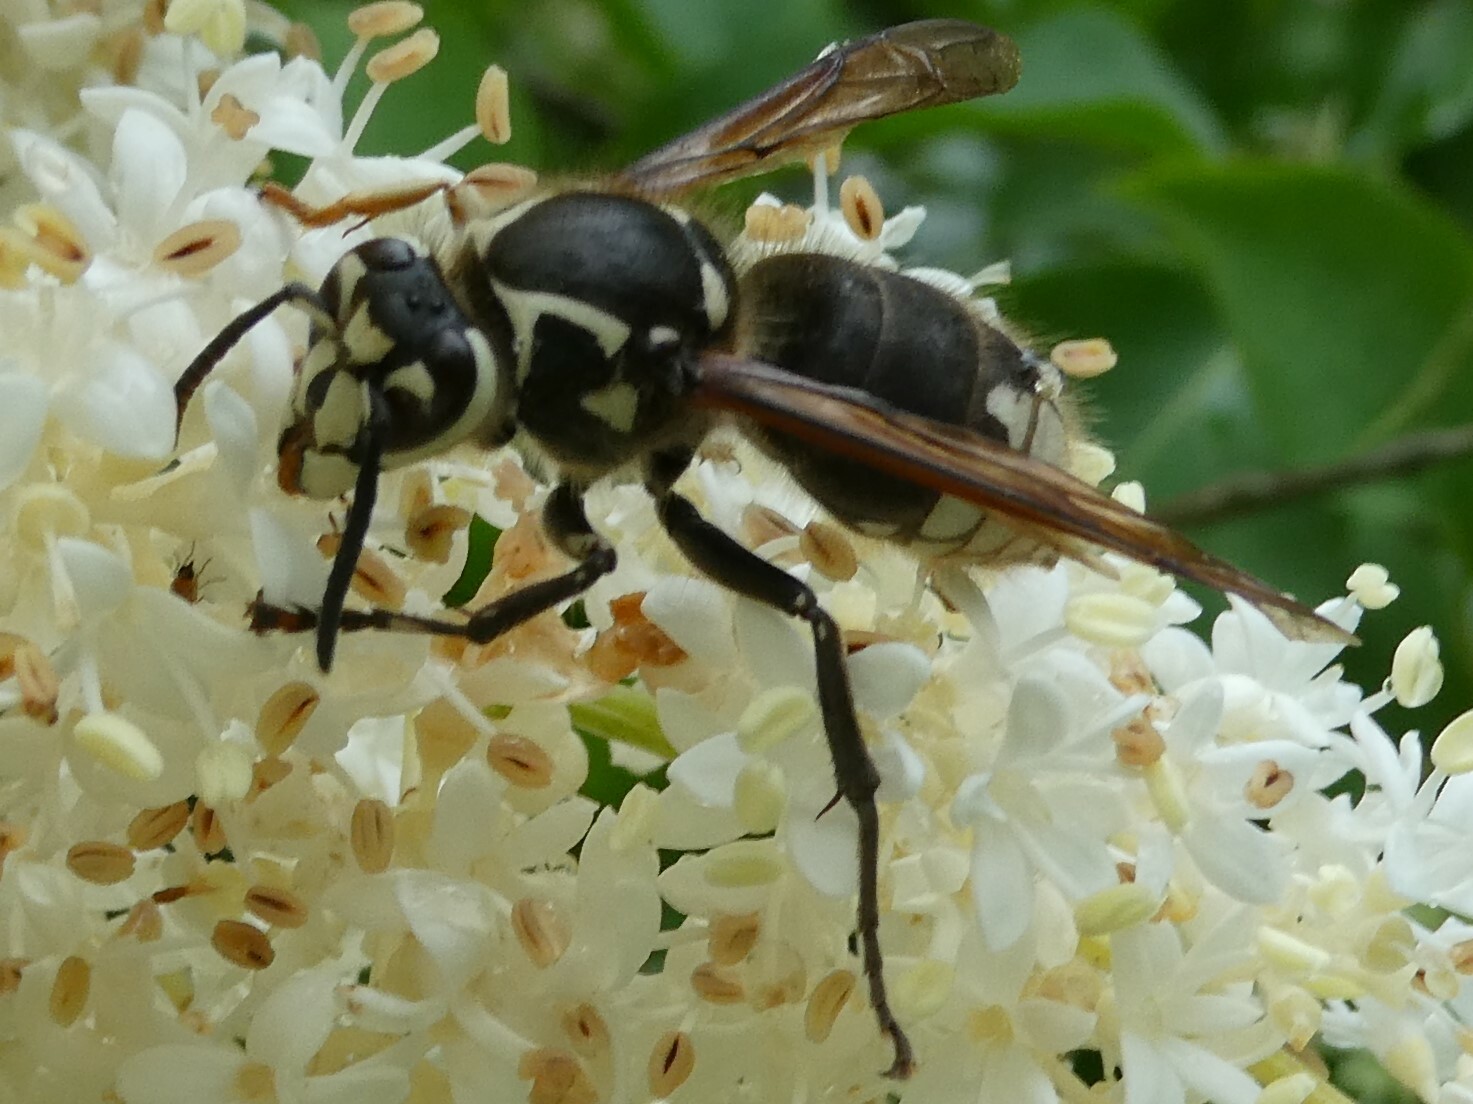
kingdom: Animalia
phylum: Arthropoda
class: Insecta
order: Hymenoptera
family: Vespidae
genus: Dolichovespula
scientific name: Dolichovespula maculata
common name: Bald-faced hornet
